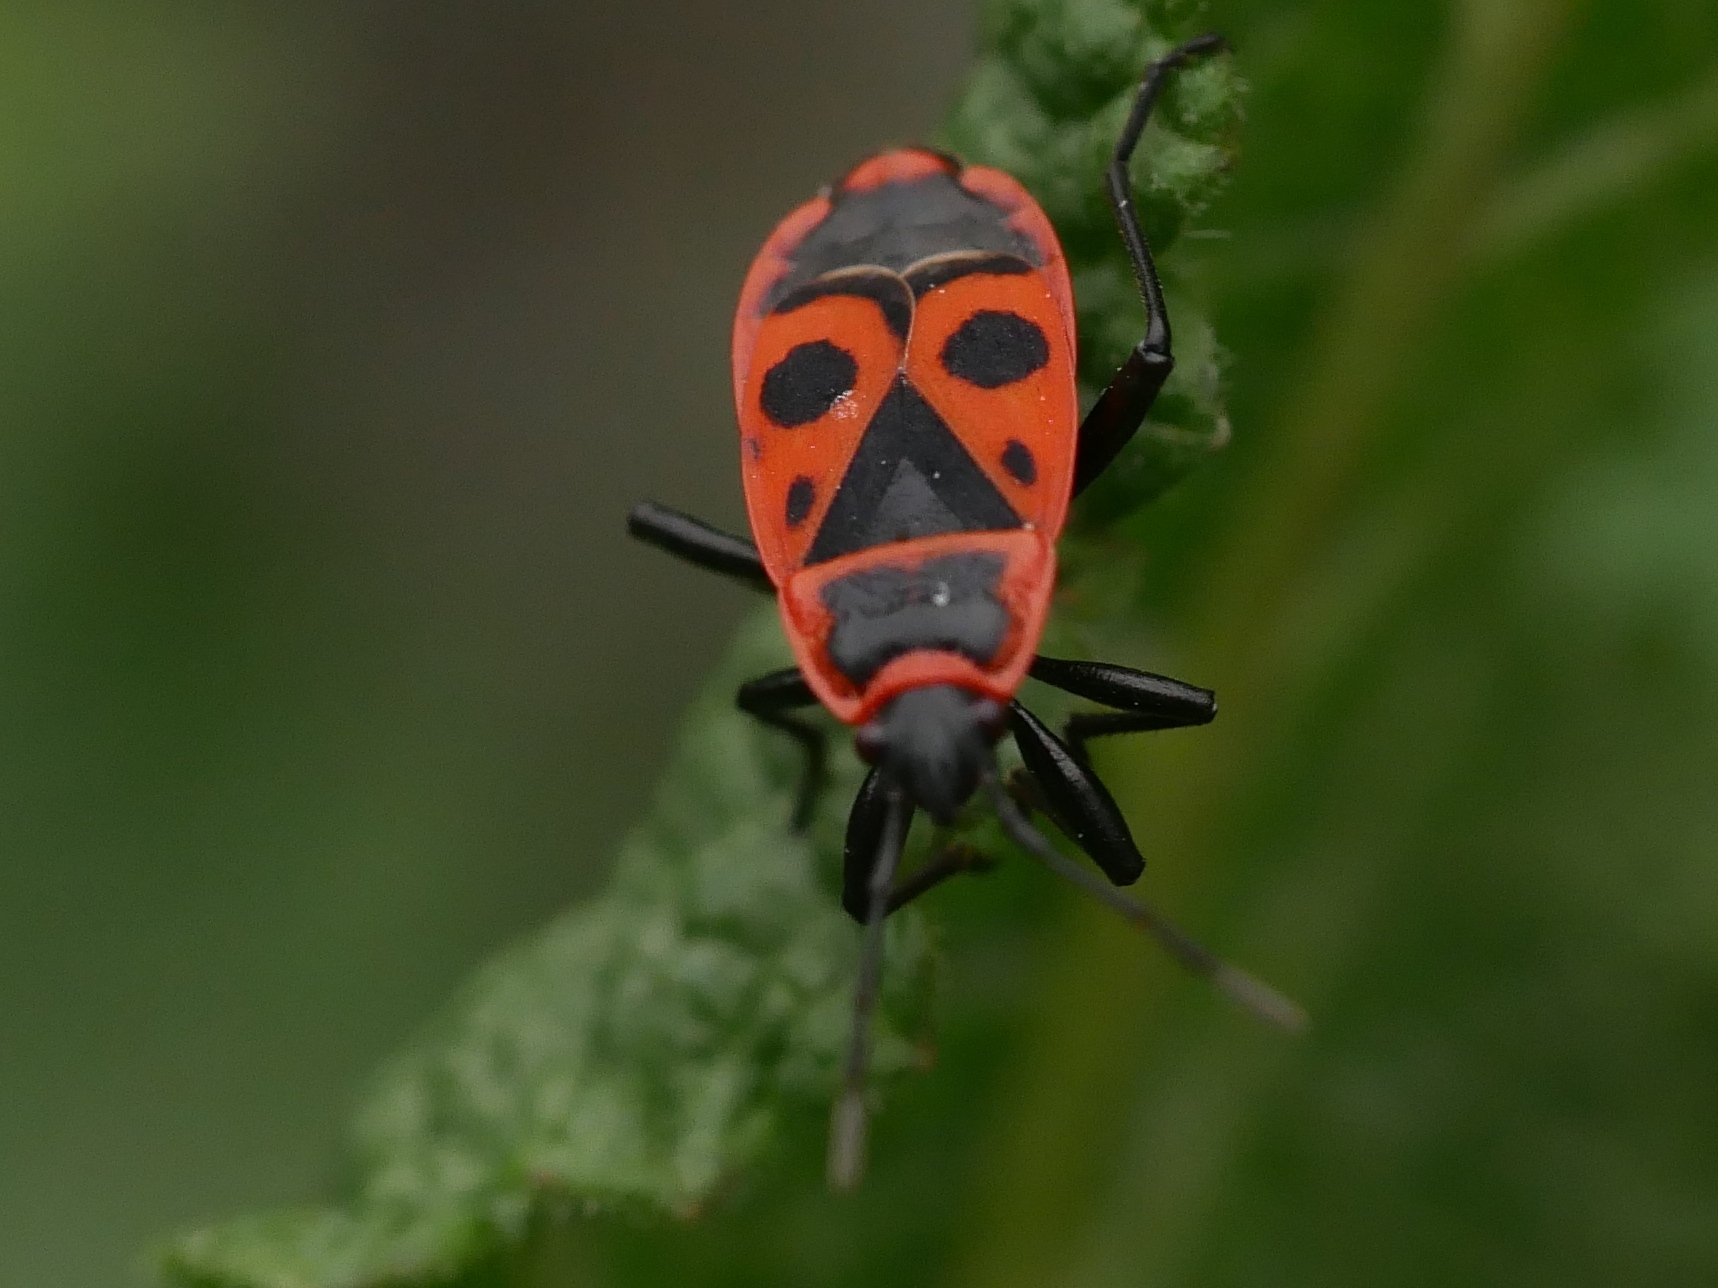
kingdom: Animalia
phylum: Arthropoda
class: Insecta
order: Hemiptera
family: Pyrrhocoridae
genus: Pyrrhocoris
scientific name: Pyrrhocoris apterus
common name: Firebug
